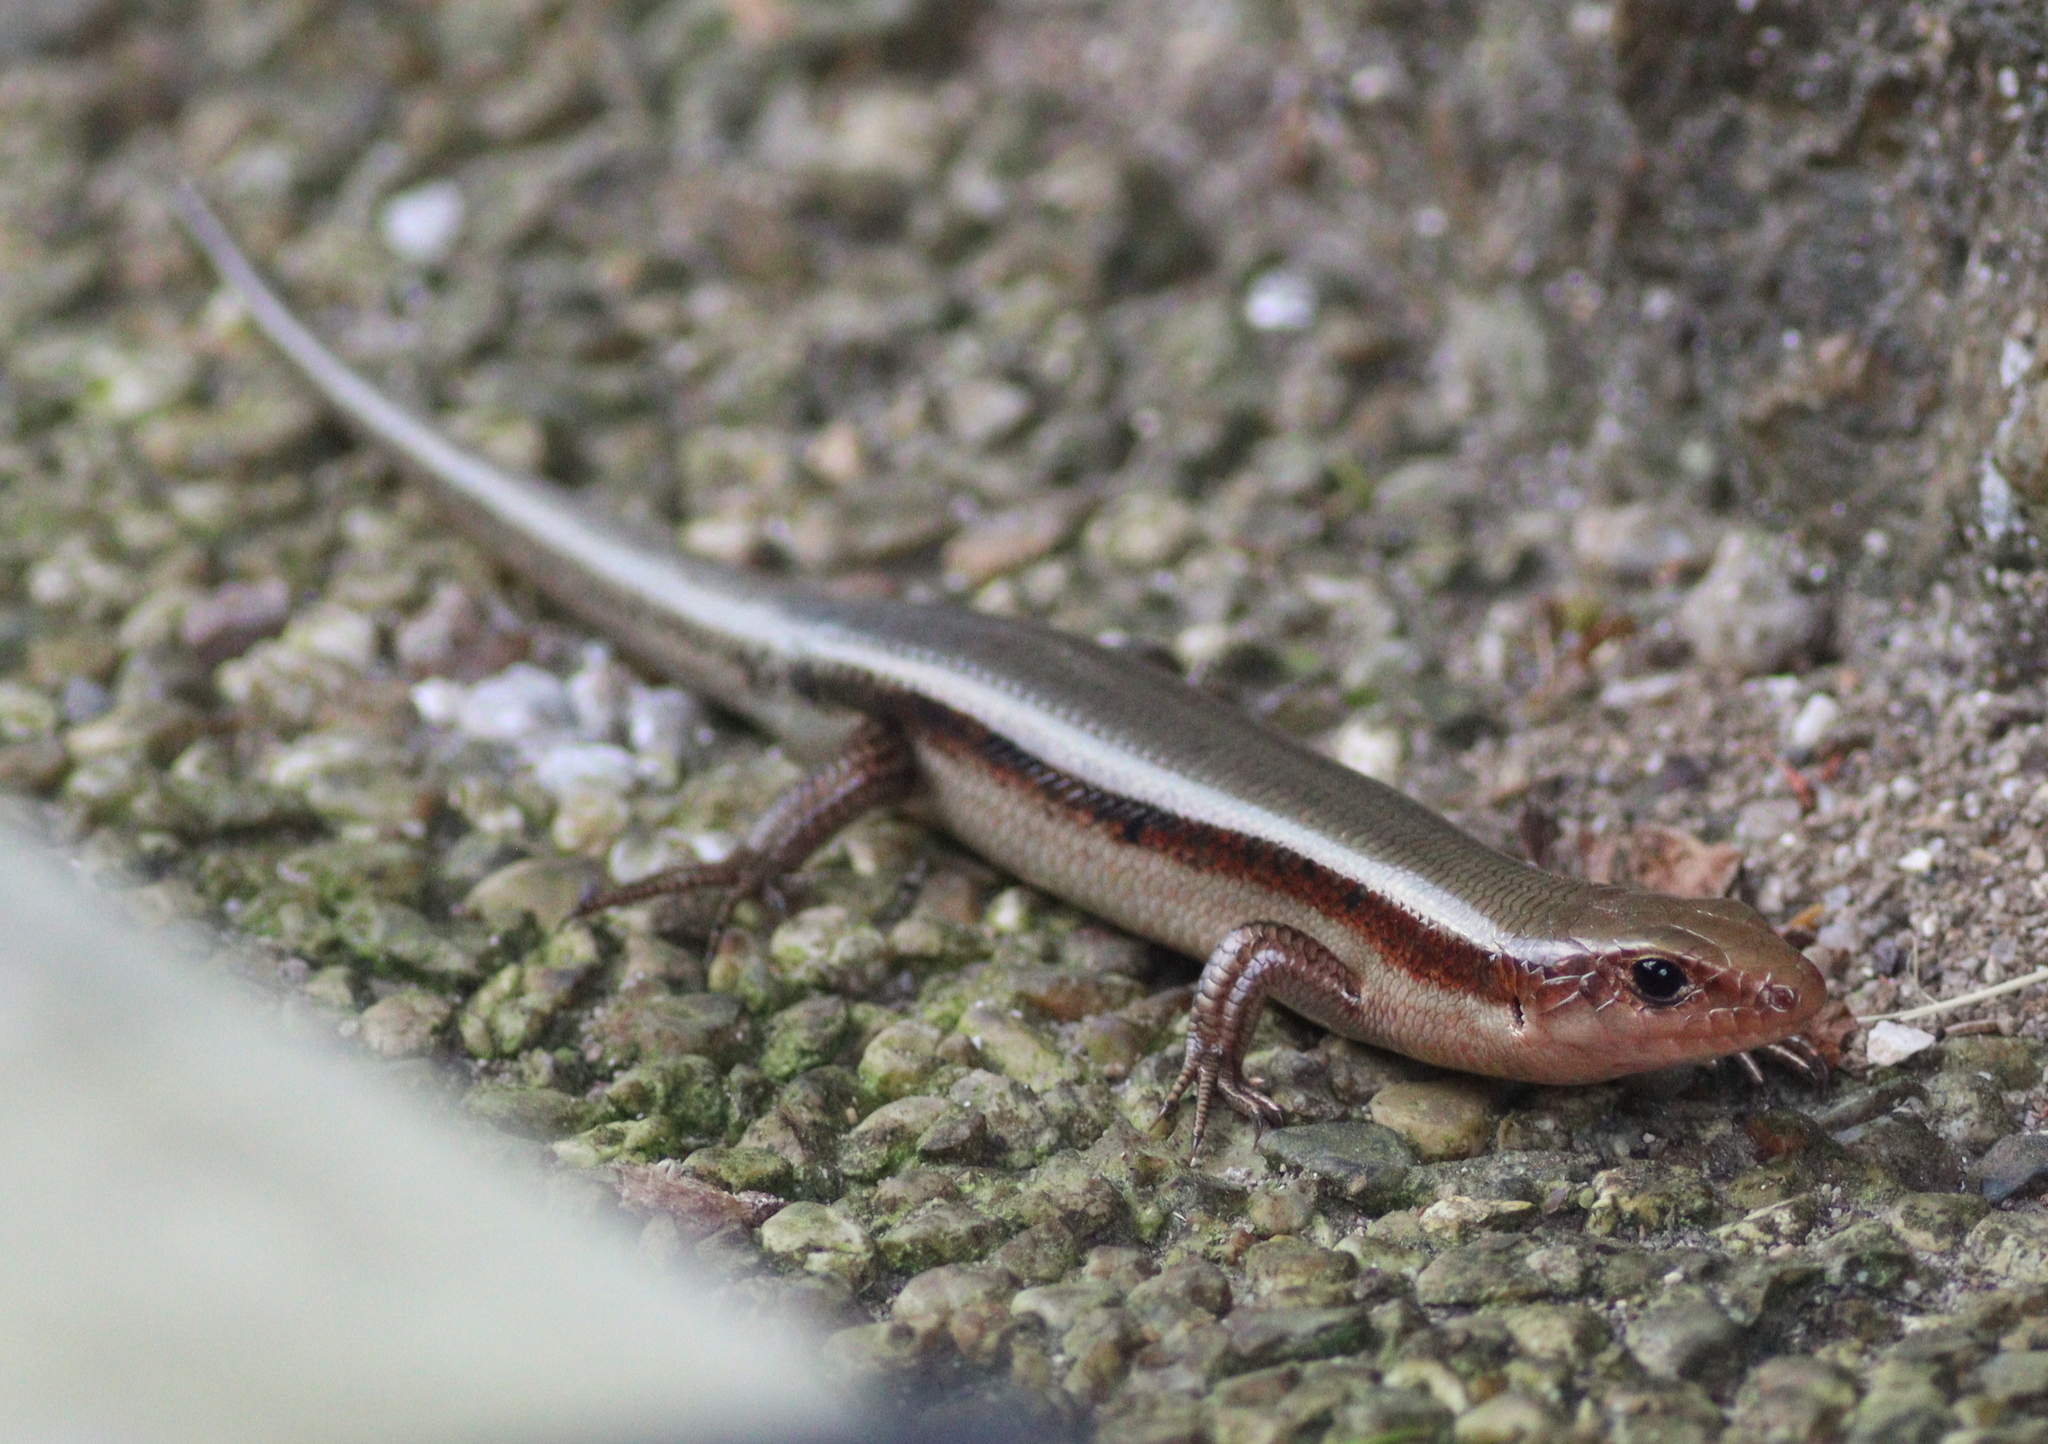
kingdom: Animalia
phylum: Chordata
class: Squamata
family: Scincidae
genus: Plestiodon
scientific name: Plestiodon finitimus
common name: Far eastern skink
